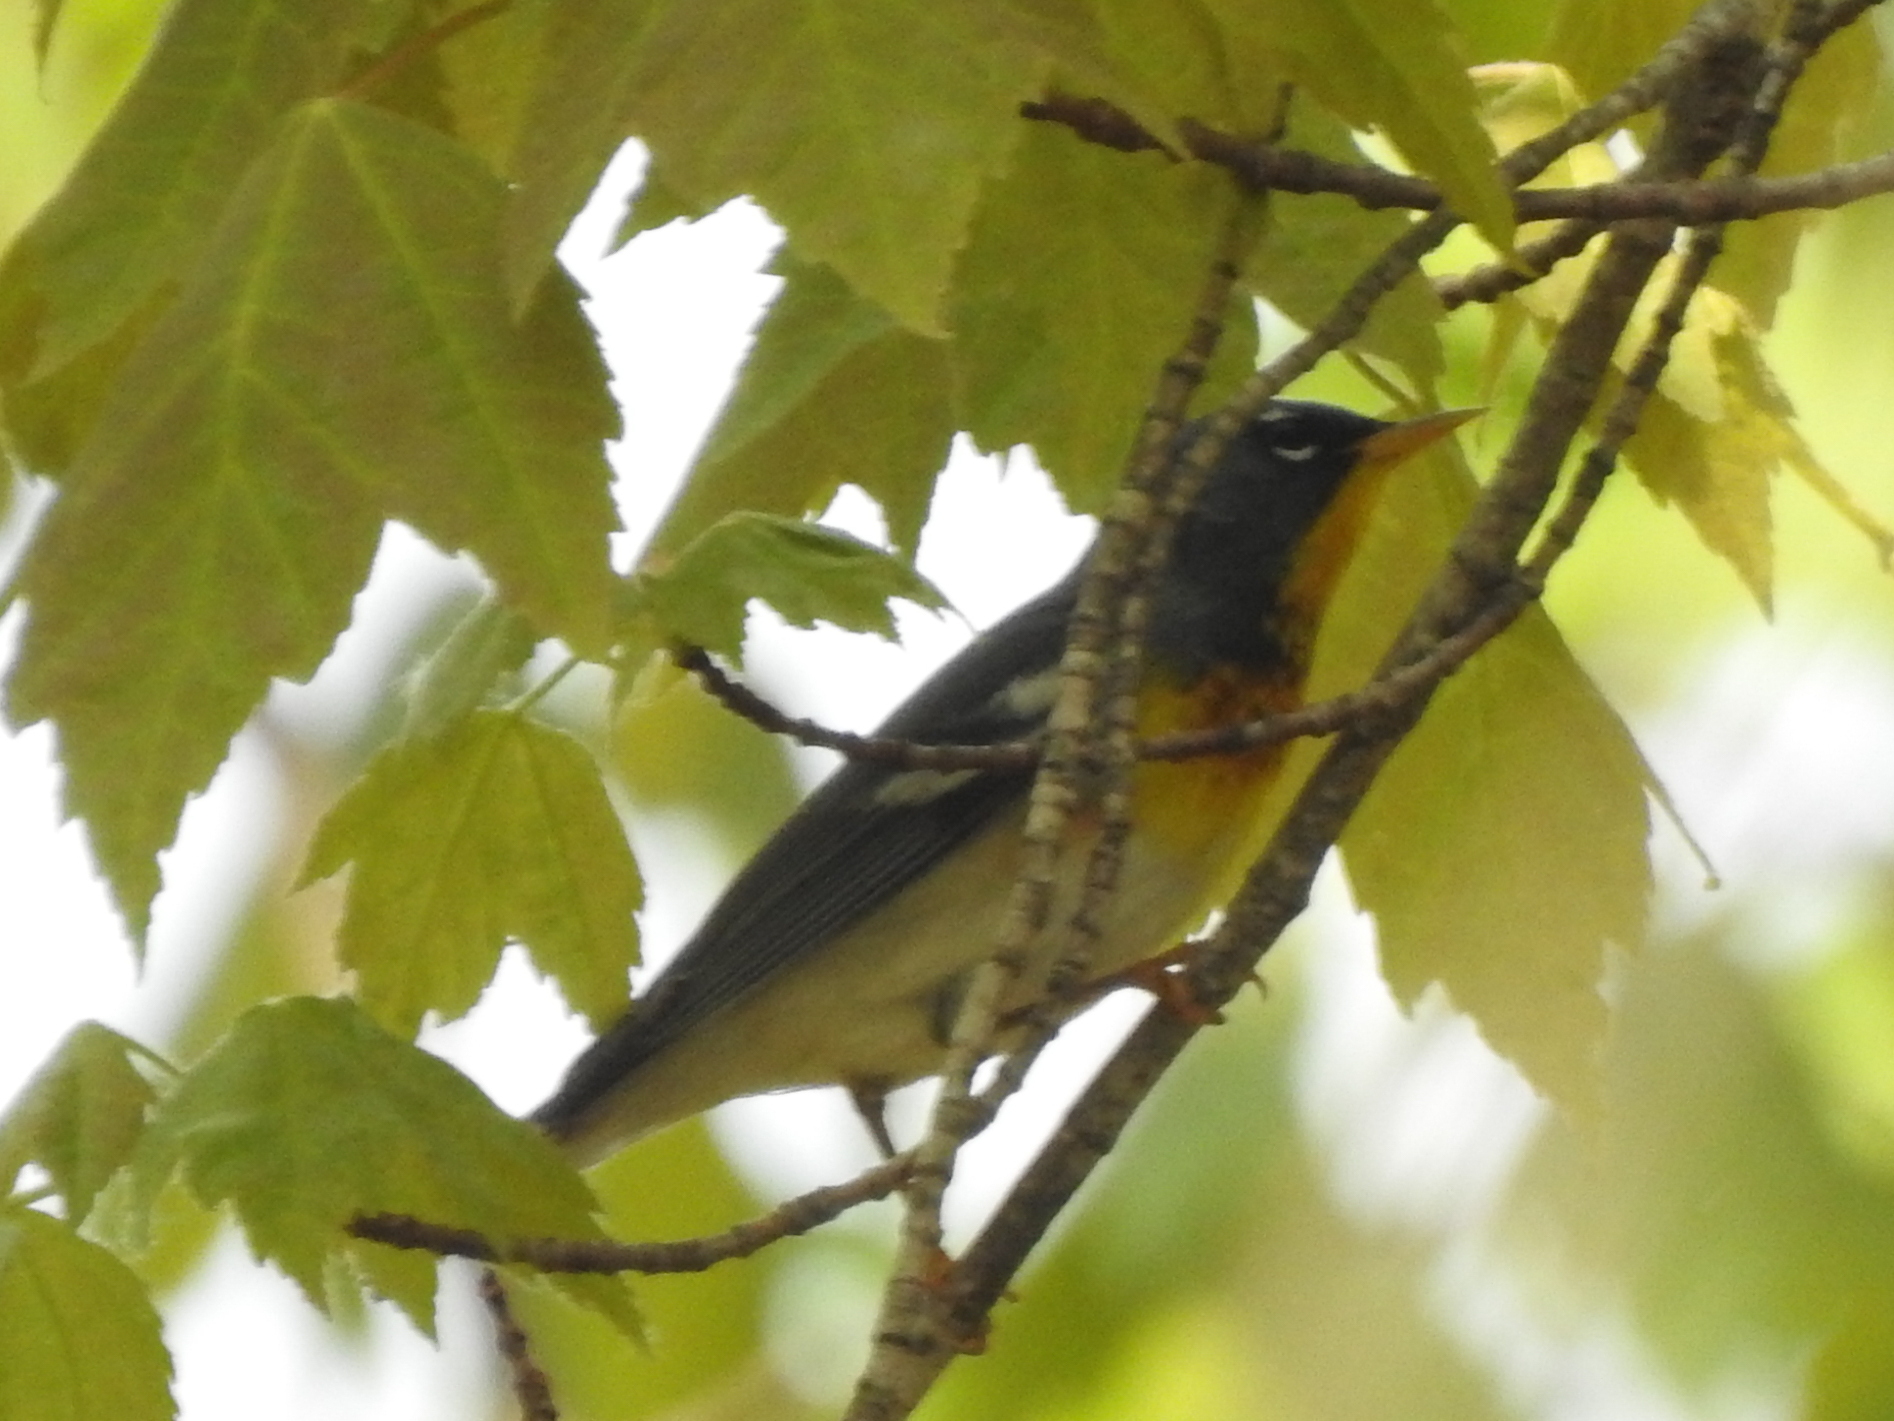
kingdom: Animalia
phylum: Chordata
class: Aves
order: Passeriformes
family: Parulidae
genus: Setophaga
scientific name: Setophaga americana
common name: Northern parula
